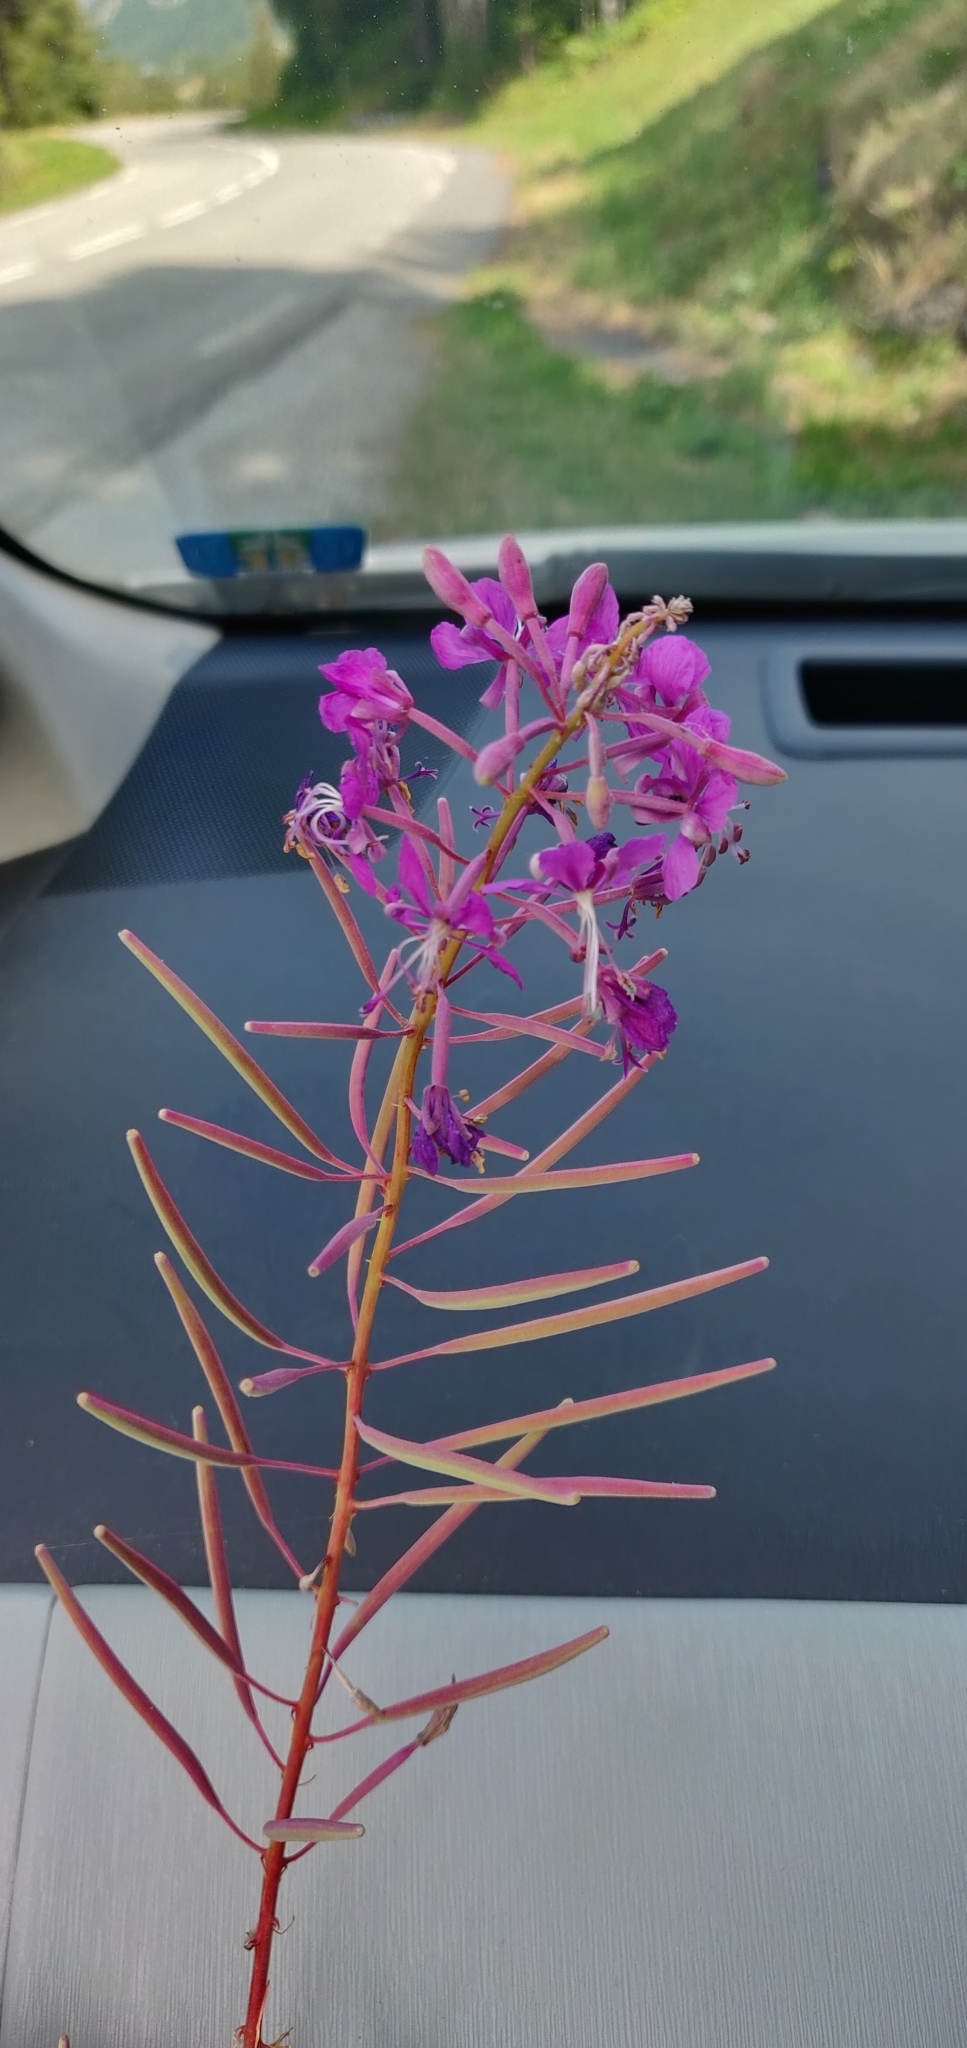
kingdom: Plantae
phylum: Tracheophyta
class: Magnoliopsida
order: Myrtales
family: Onagraceae
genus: Chamaenerion
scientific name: Chamaenerion angustifolium
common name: Fireweed
